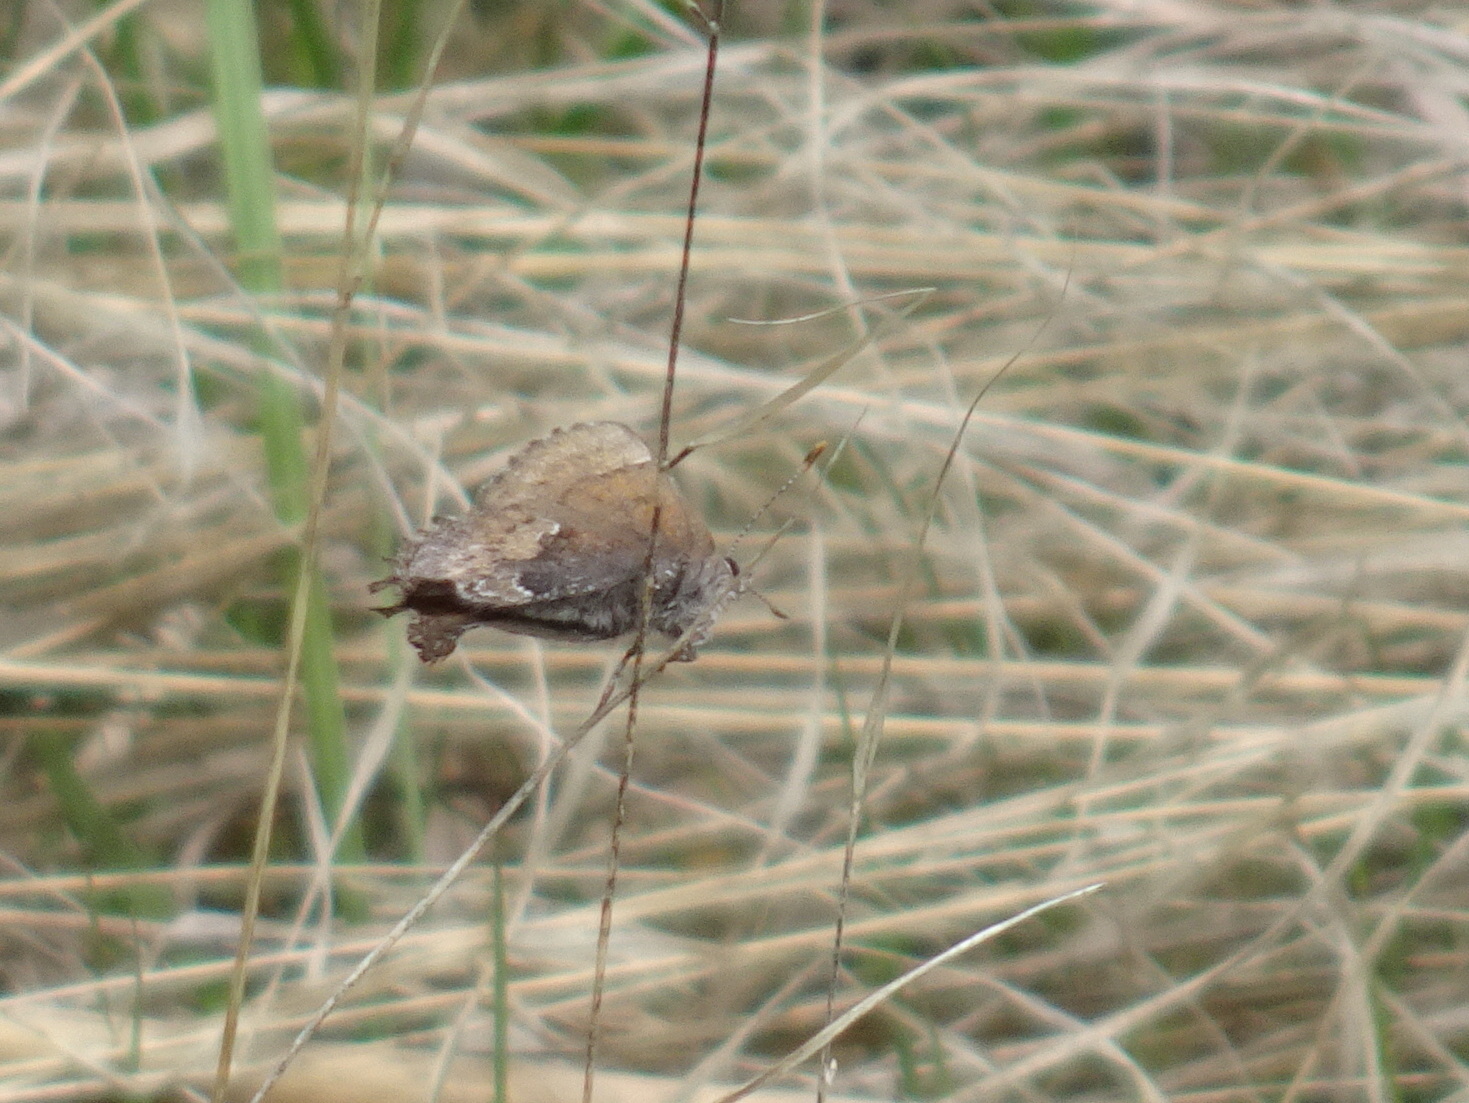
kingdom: Animalia
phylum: Arthropoda
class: Insecta
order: Lepidoptera
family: Lycaenidae
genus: Incisalia
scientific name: Incisalia henrici
